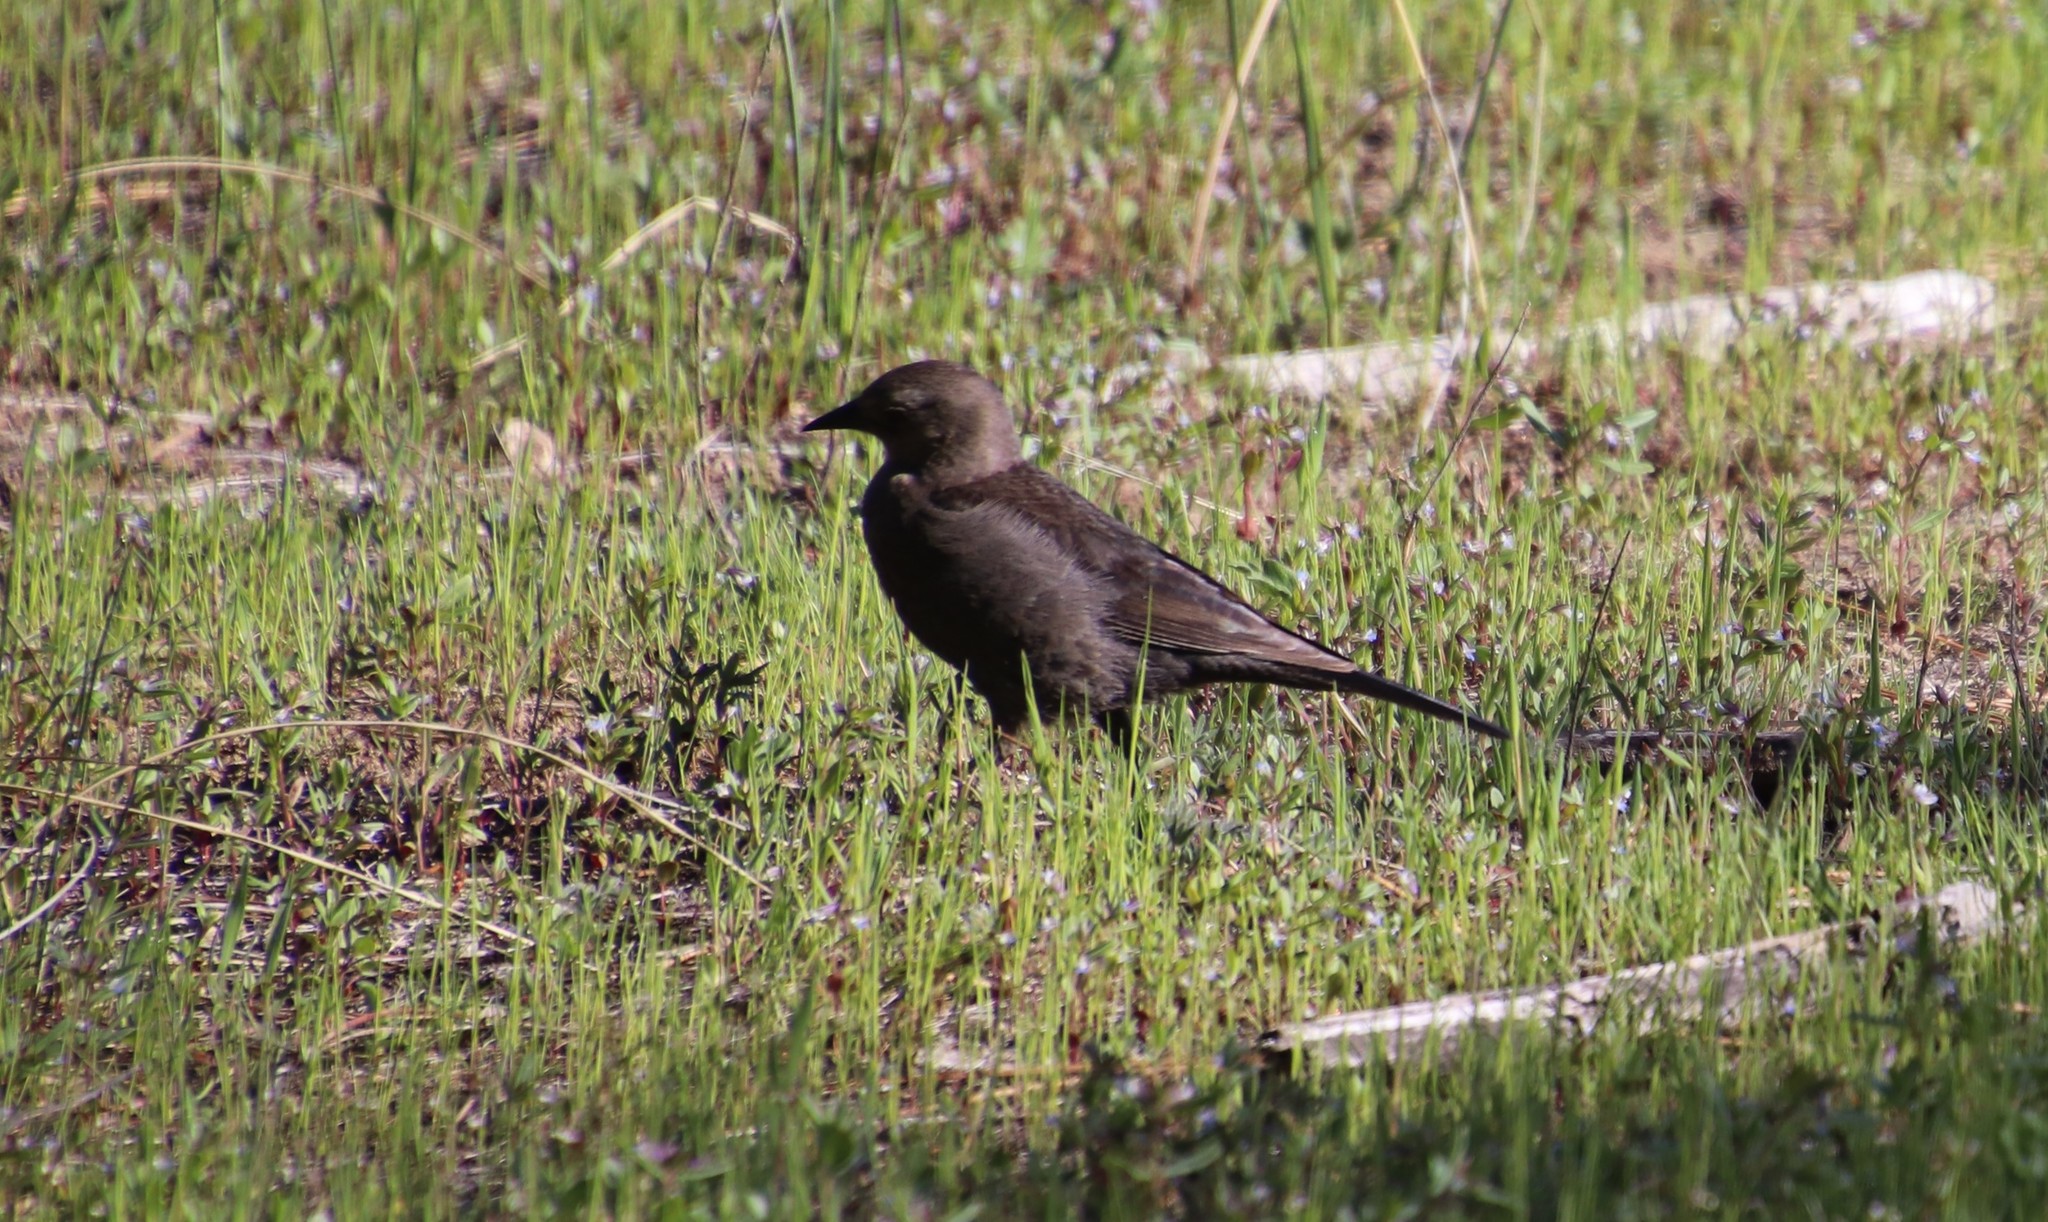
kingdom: Animalia
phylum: Chordata
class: Aves
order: Passeriformes
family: Icteridae
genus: Euphagus
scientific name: Euphagus cyanocephalus
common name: Brewer's blackbird
